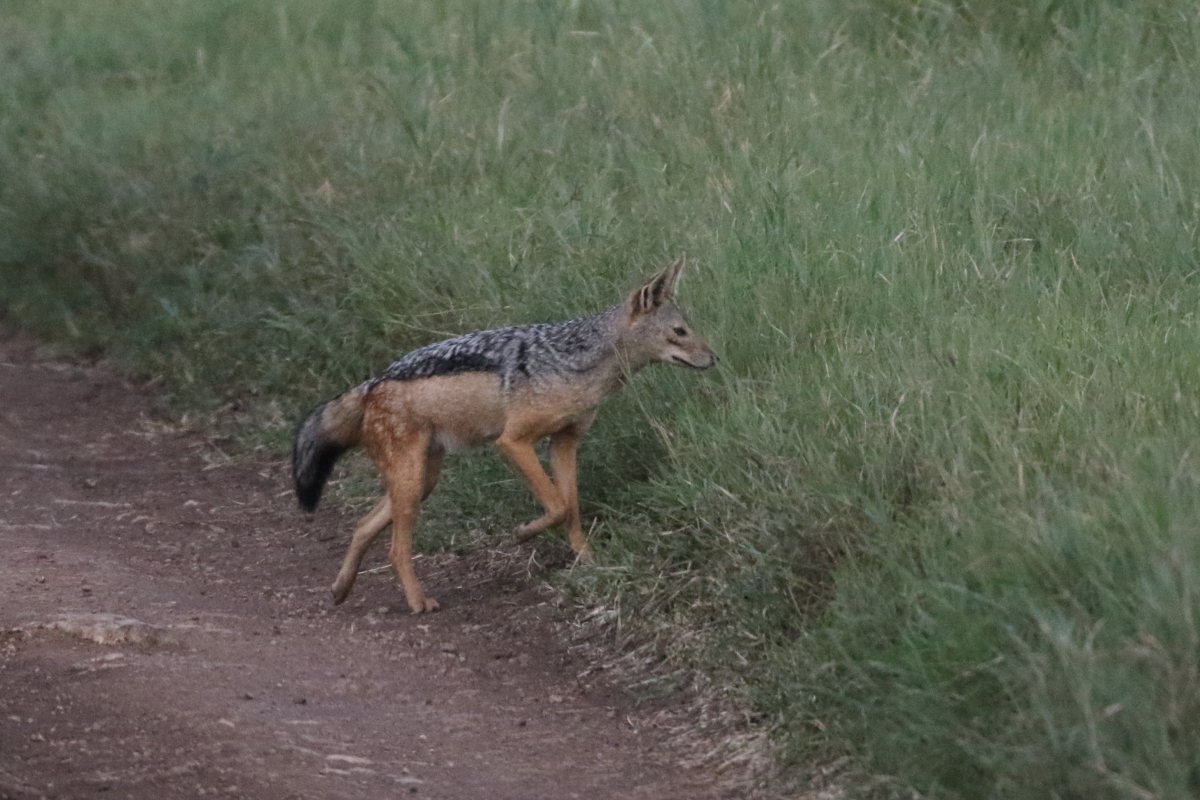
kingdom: Animalia
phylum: Chordata
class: Mammalia
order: Carnivora
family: Canidae
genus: Lupulella
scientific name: Lupulella
